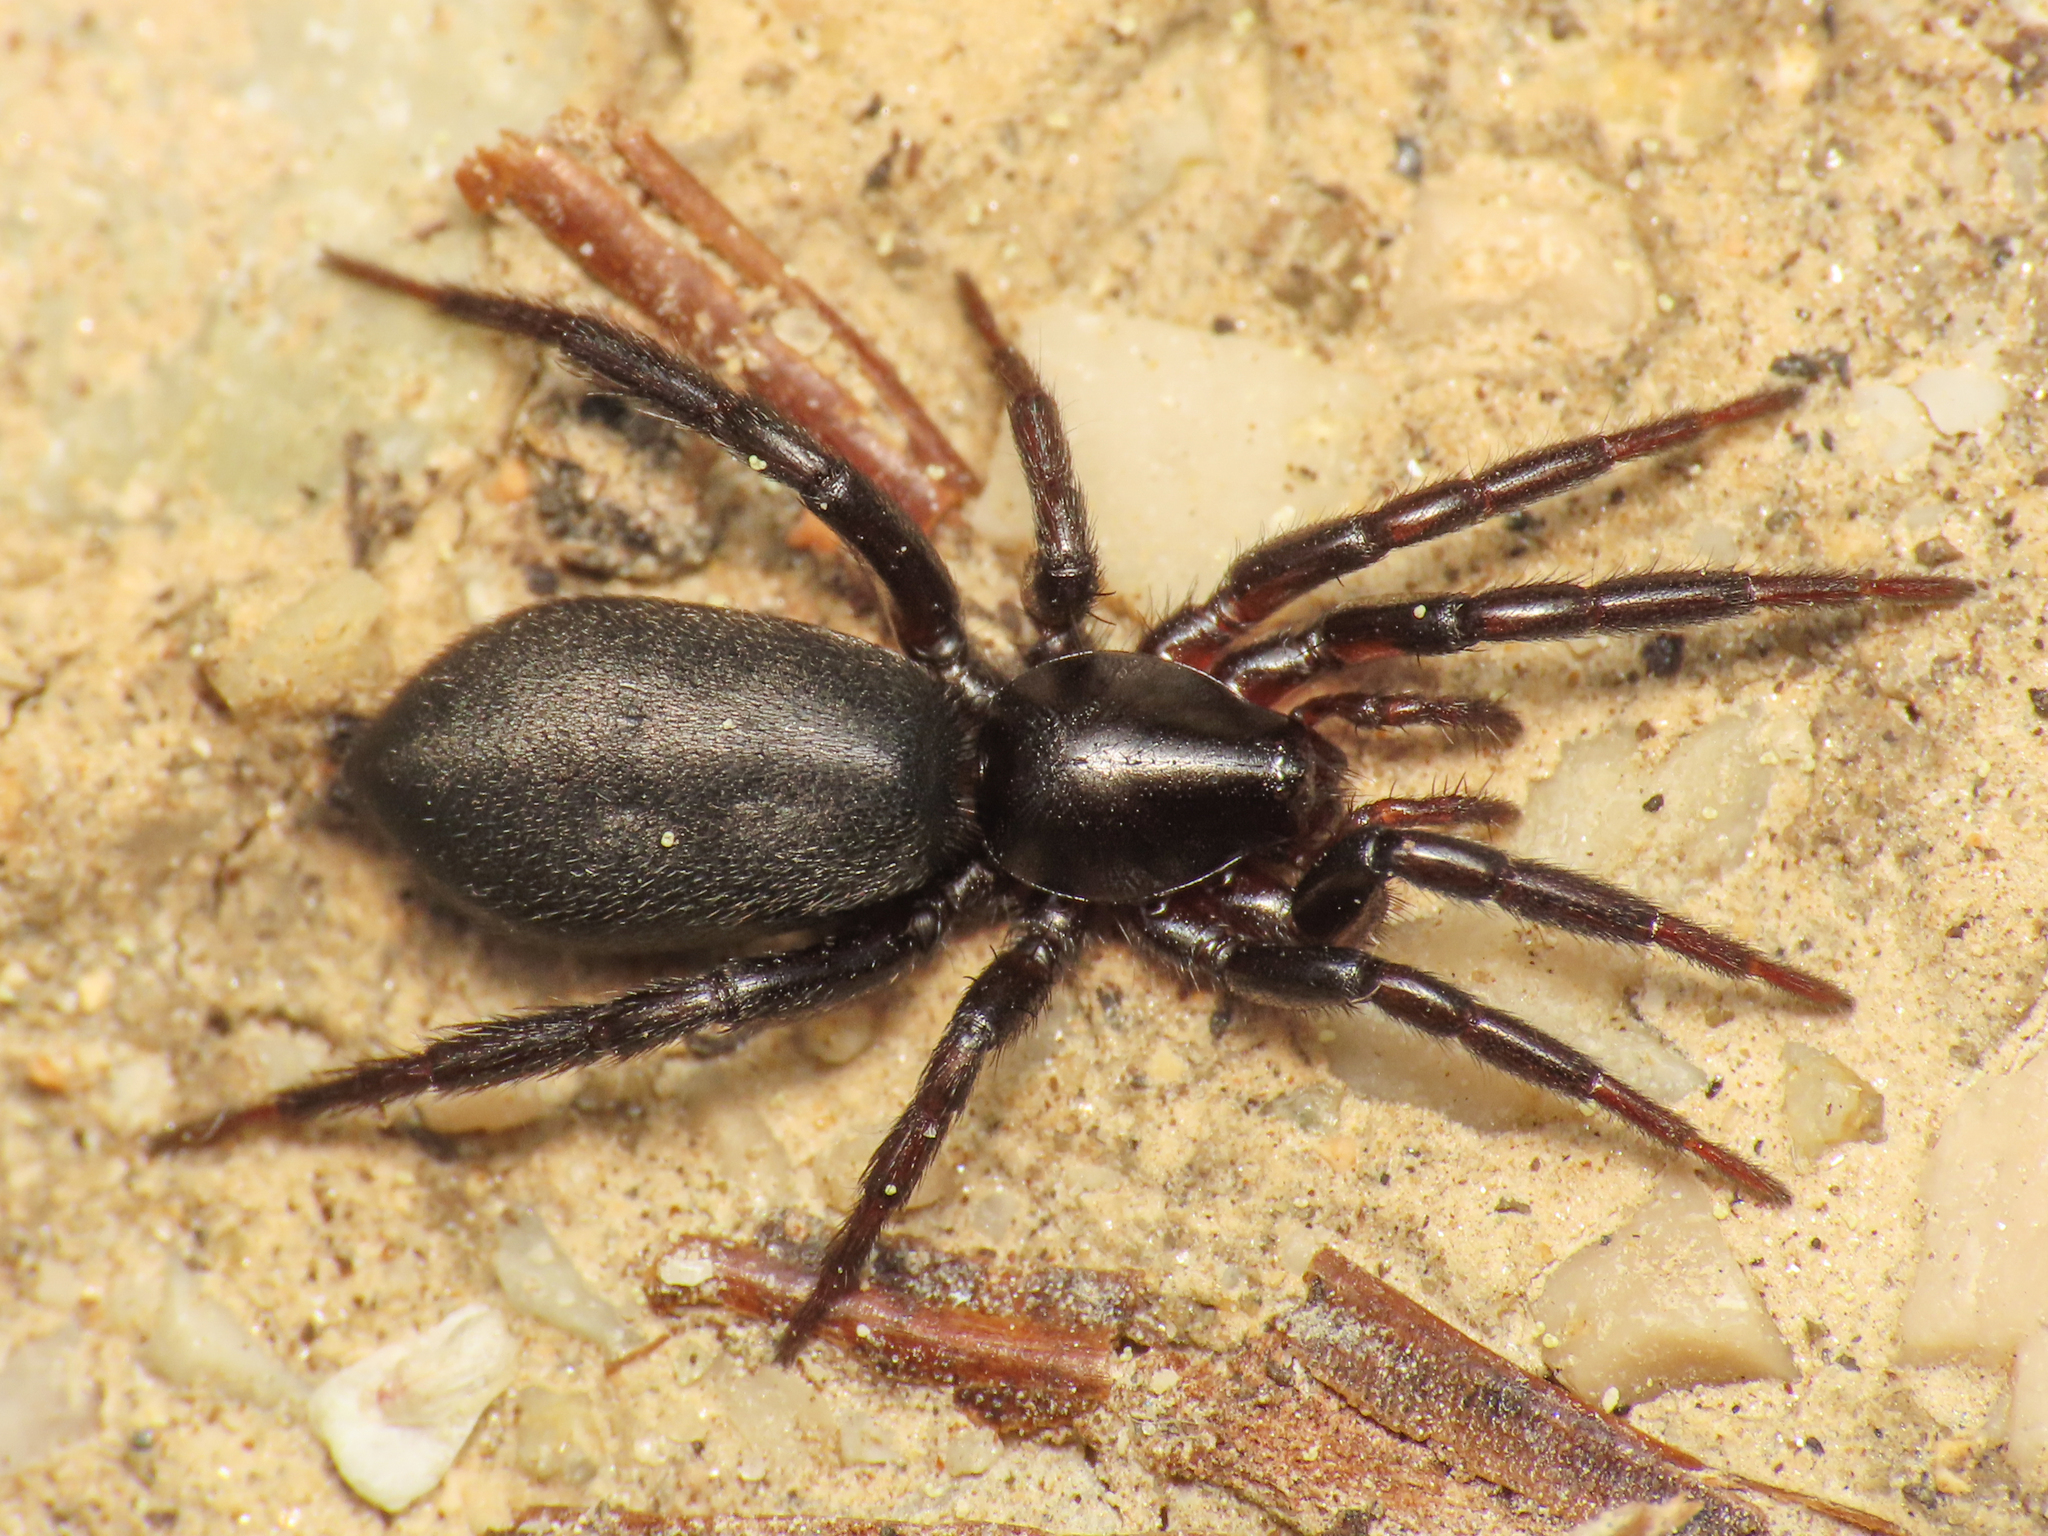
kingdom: Animalia
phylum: Arthropoda
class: Arachnida
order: Araneae
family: Gnaphosidae
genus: Zelotes
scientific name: Zelotes oblongus
